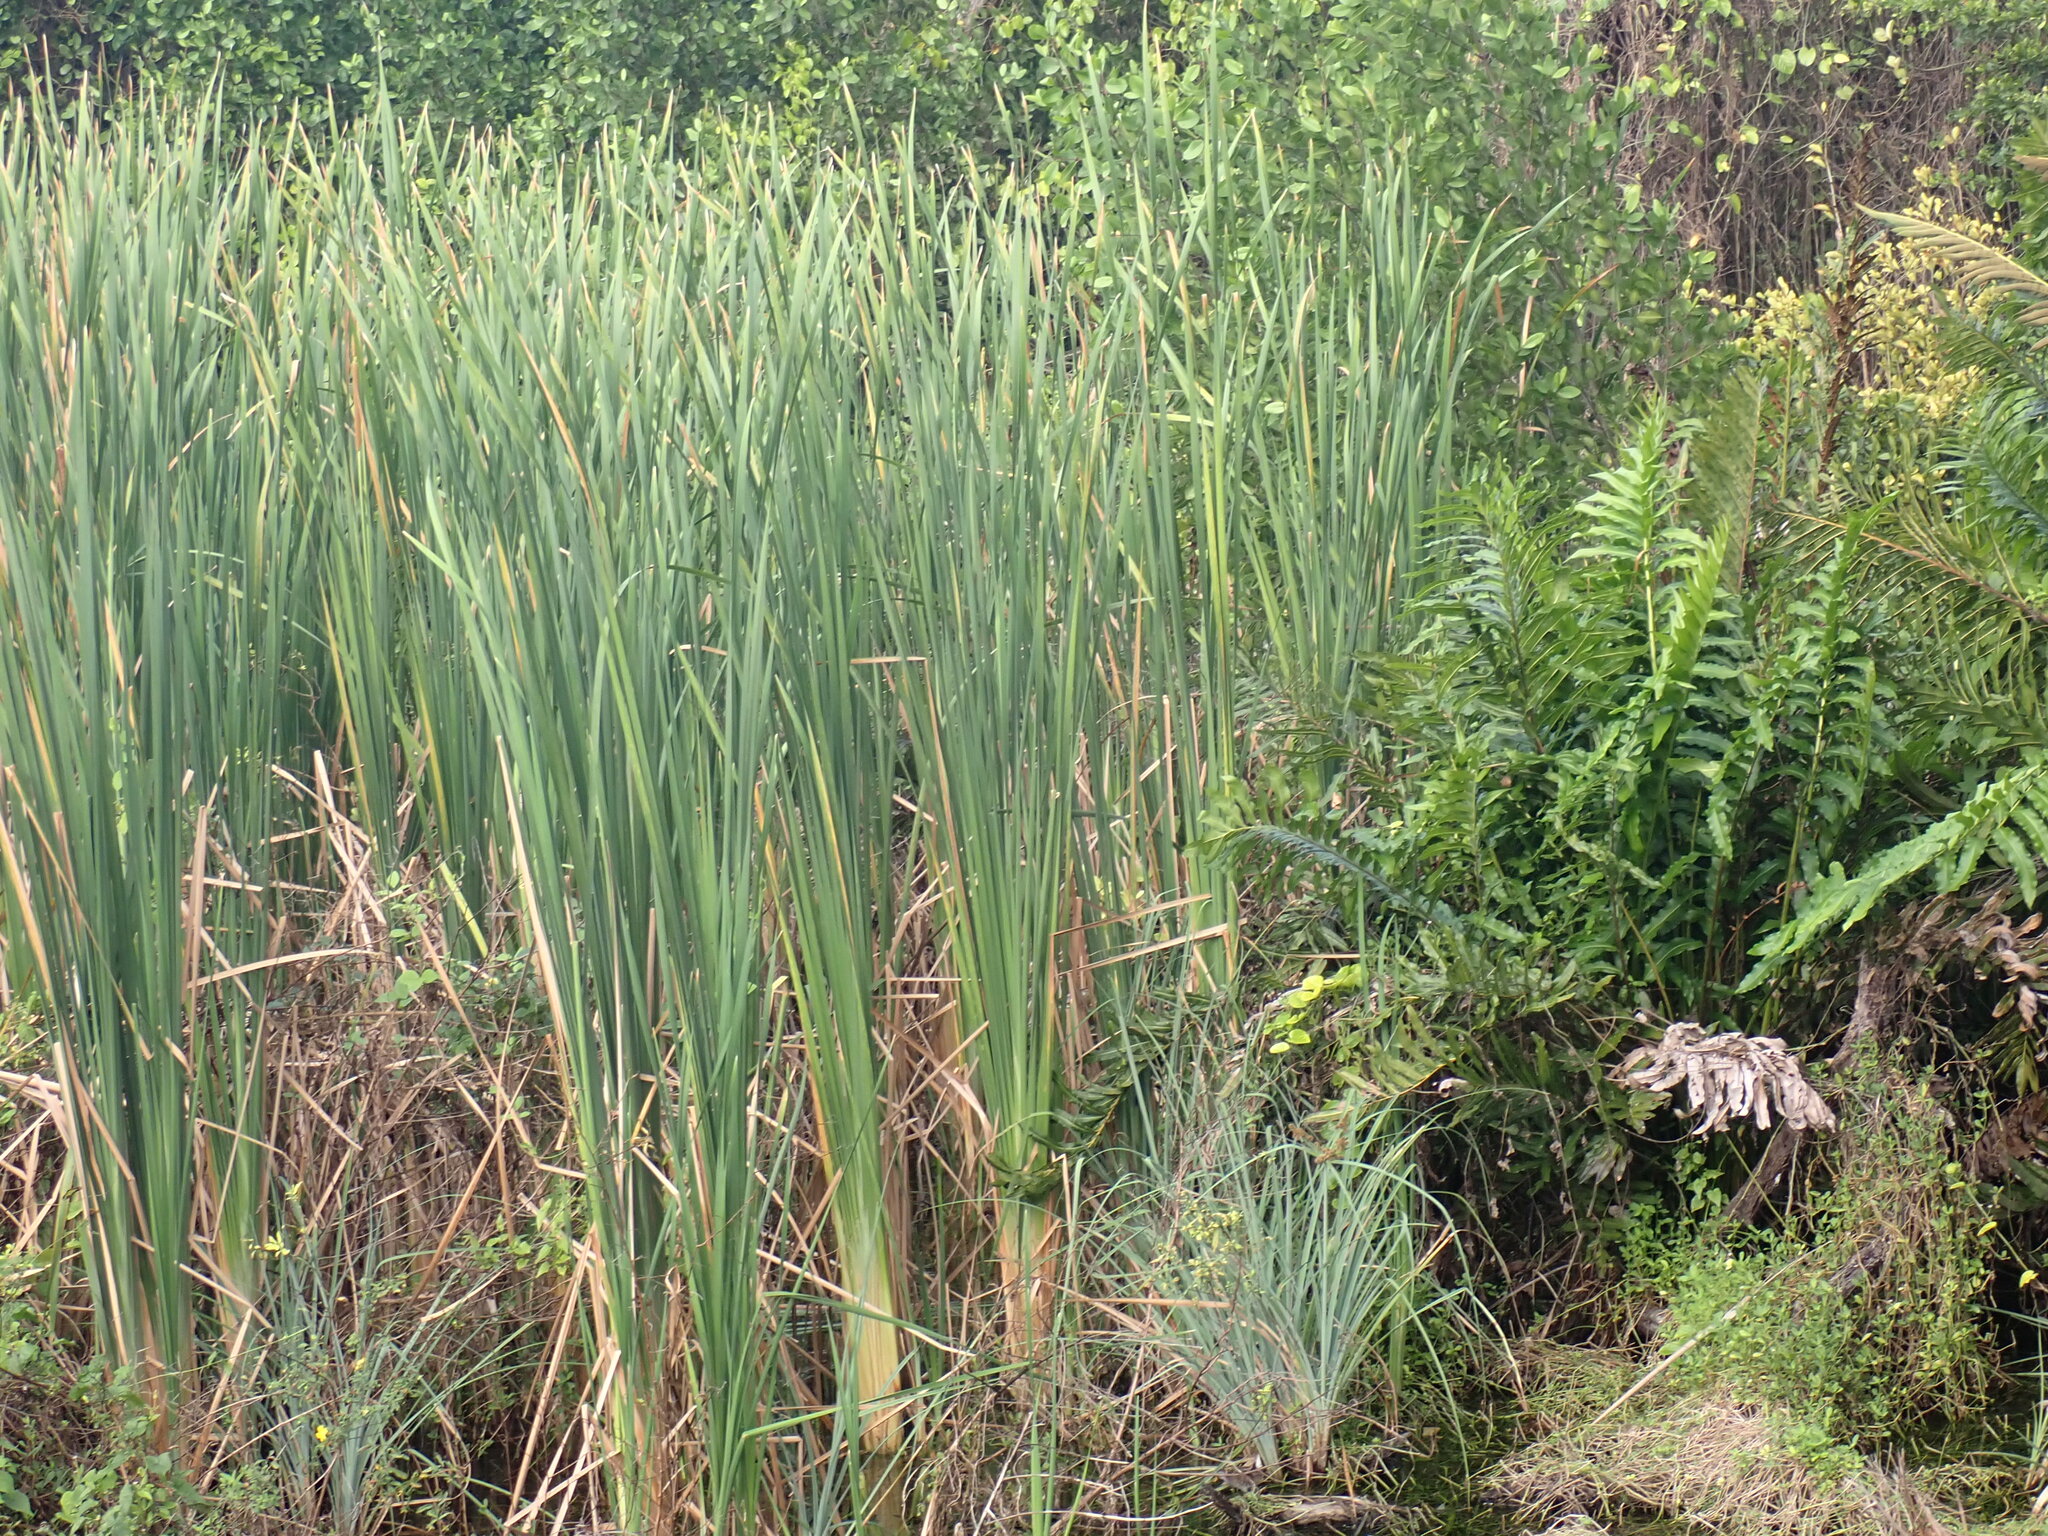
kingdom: Plantae
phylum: Tracheophyta
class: Liliopsida
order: Poales
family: Typhaceae
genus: Typha
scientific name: Typha domingensis
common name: Southern cattail
